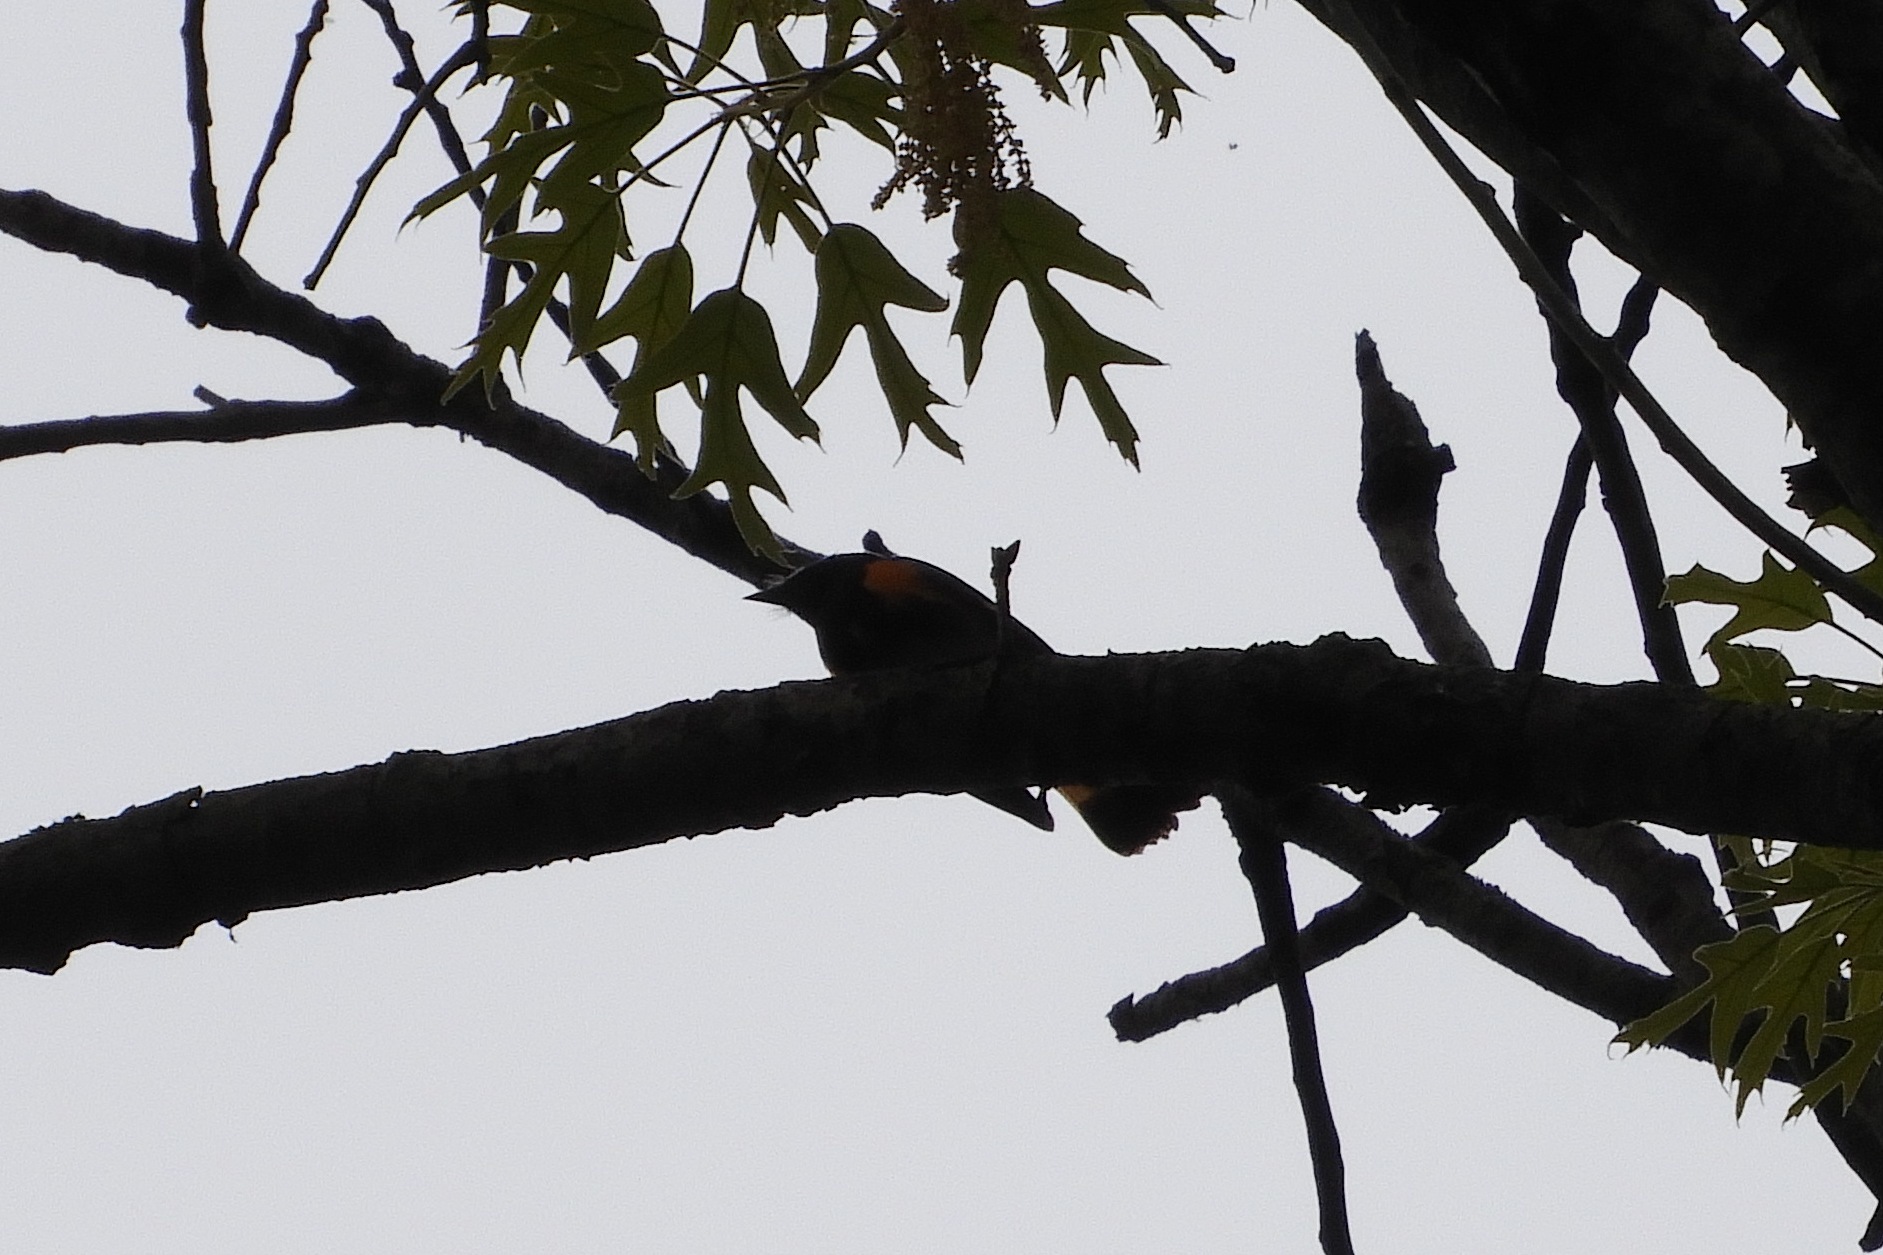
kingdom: Animalia
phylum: Chordata
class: Aves
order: Passeriformes
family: Parulidae
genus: Setophaga
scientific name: Setophaga ruticilla
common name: American redstart
